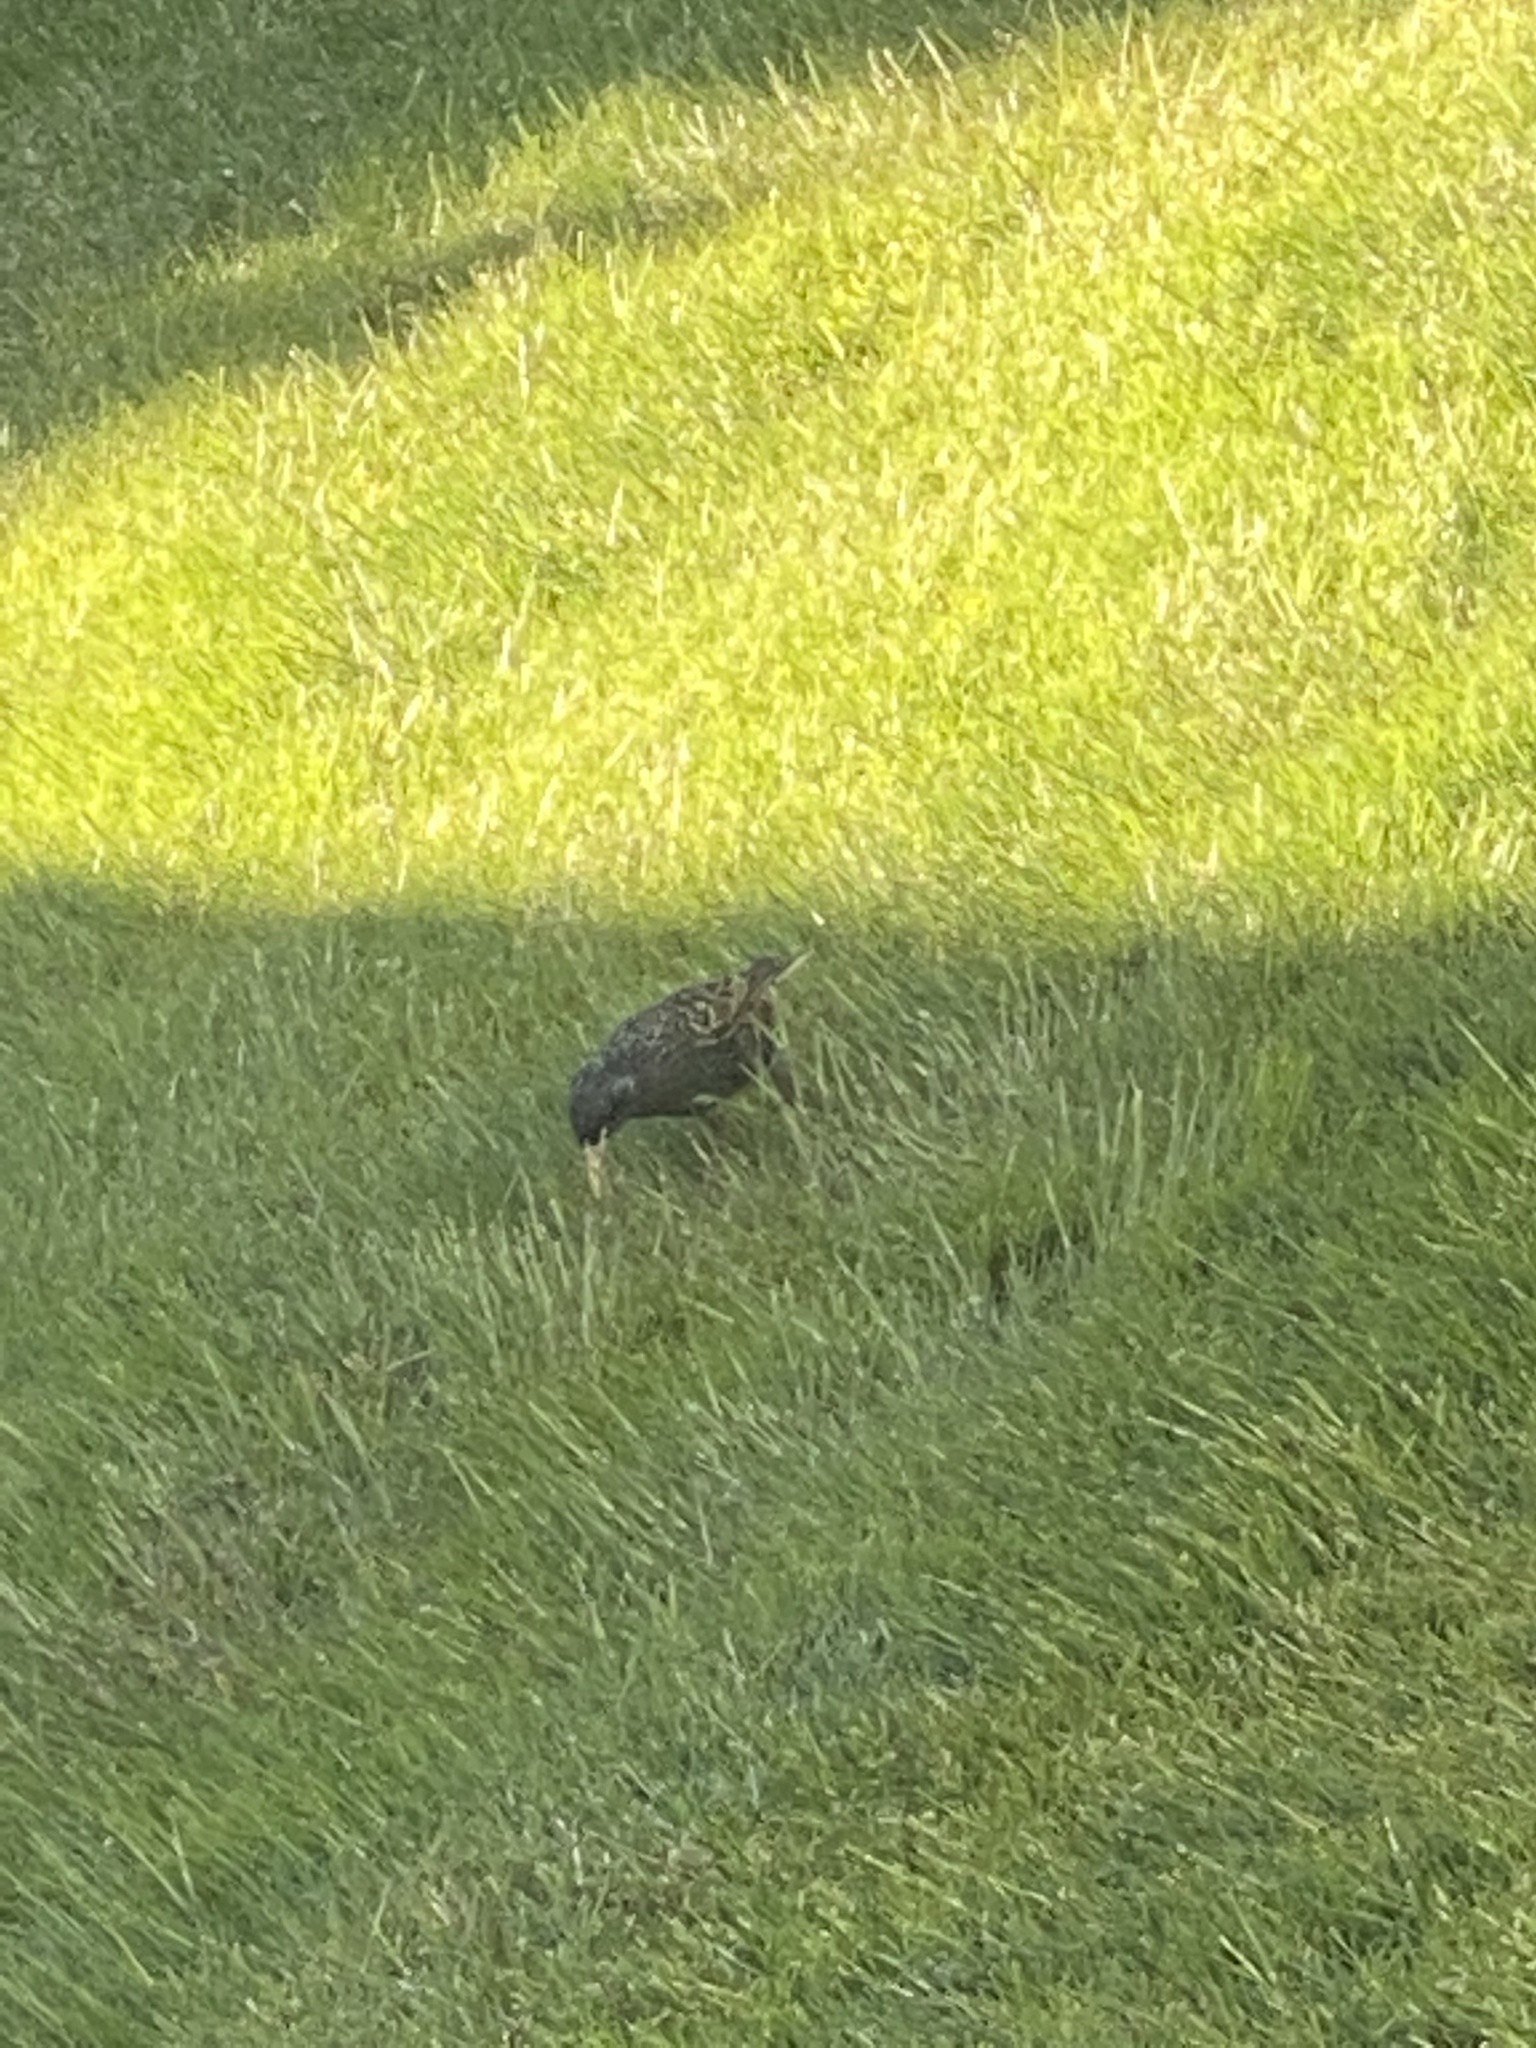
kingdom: Animalia
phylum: Chordata
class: Aves
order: Passeriformes
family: Sturnidae
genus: Sturnus
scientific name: Sturnus vulgaris
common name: Common starling
